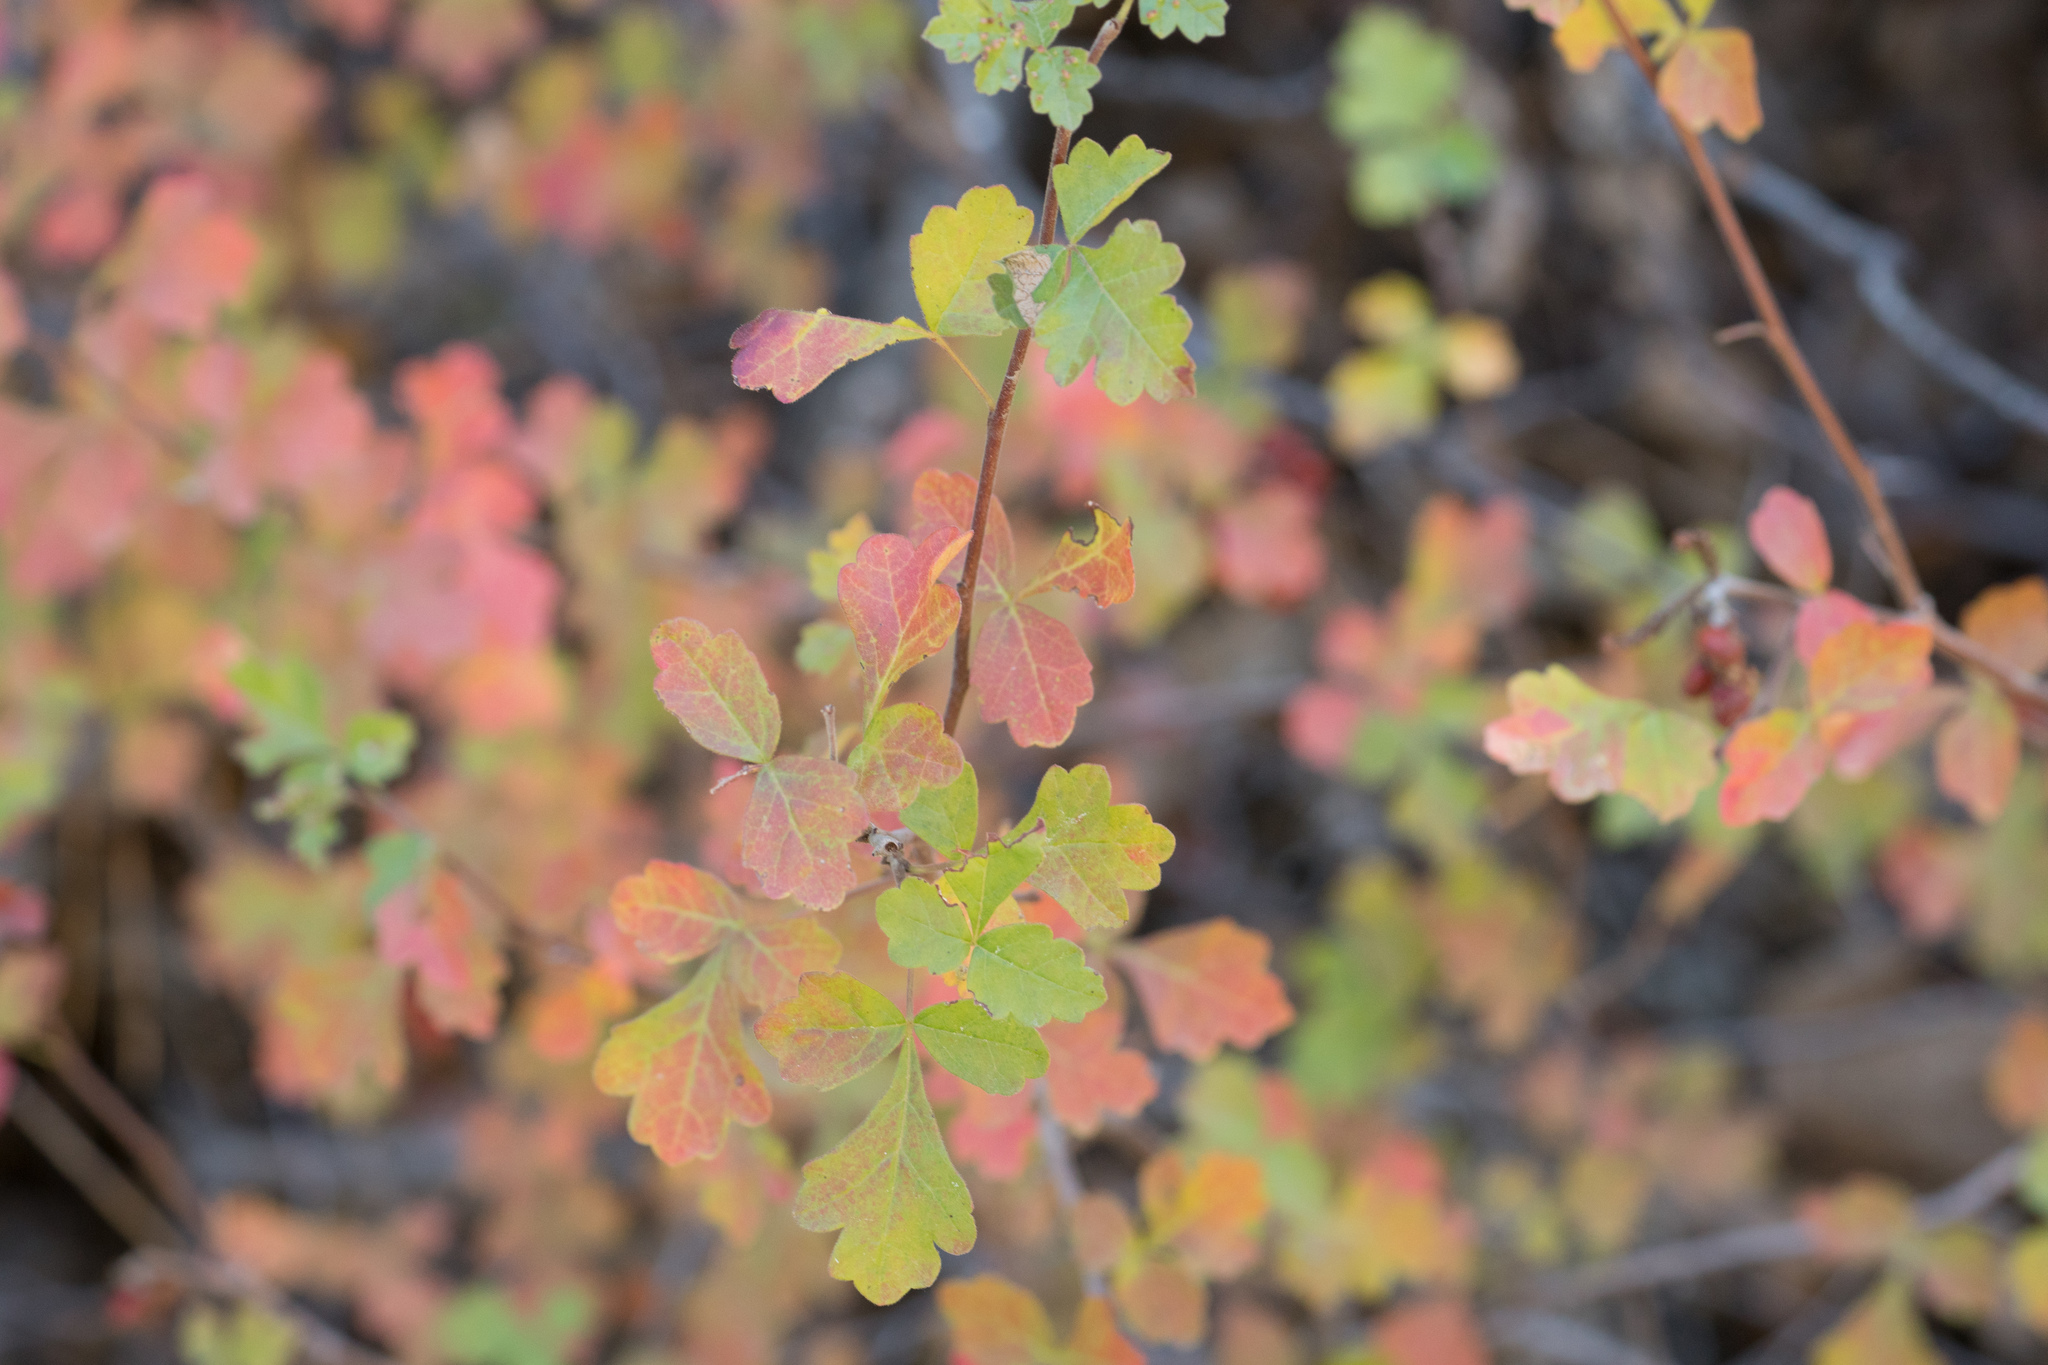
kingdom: Plantae
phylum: Tracheophyta
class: Magnoliopsida
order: Sapindales
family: Anacardiaceae
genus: Rhus
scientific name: Rhus aromatica
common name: Aromatic sumac
